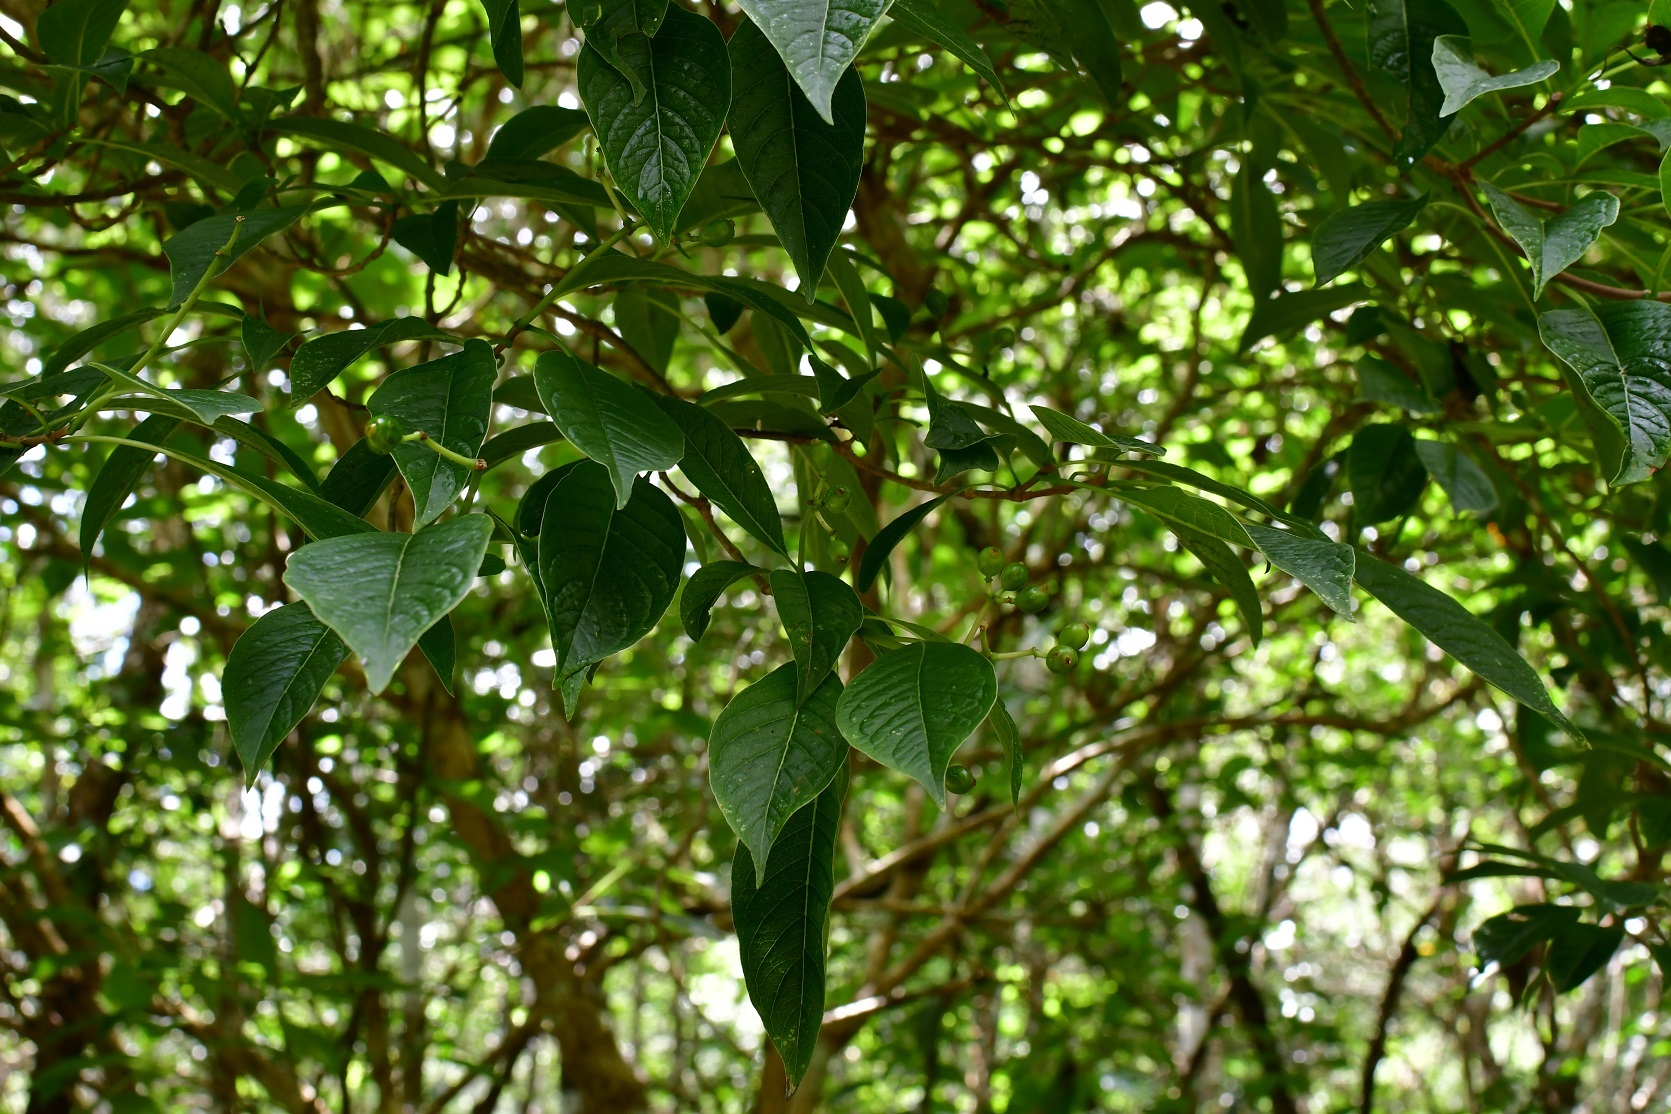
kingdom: Plantae
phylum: Tracheophyta
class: Magnoliopsida
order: Gentianales
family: Rubiaceae
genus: Eumachia
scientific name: Eumachia microdon
